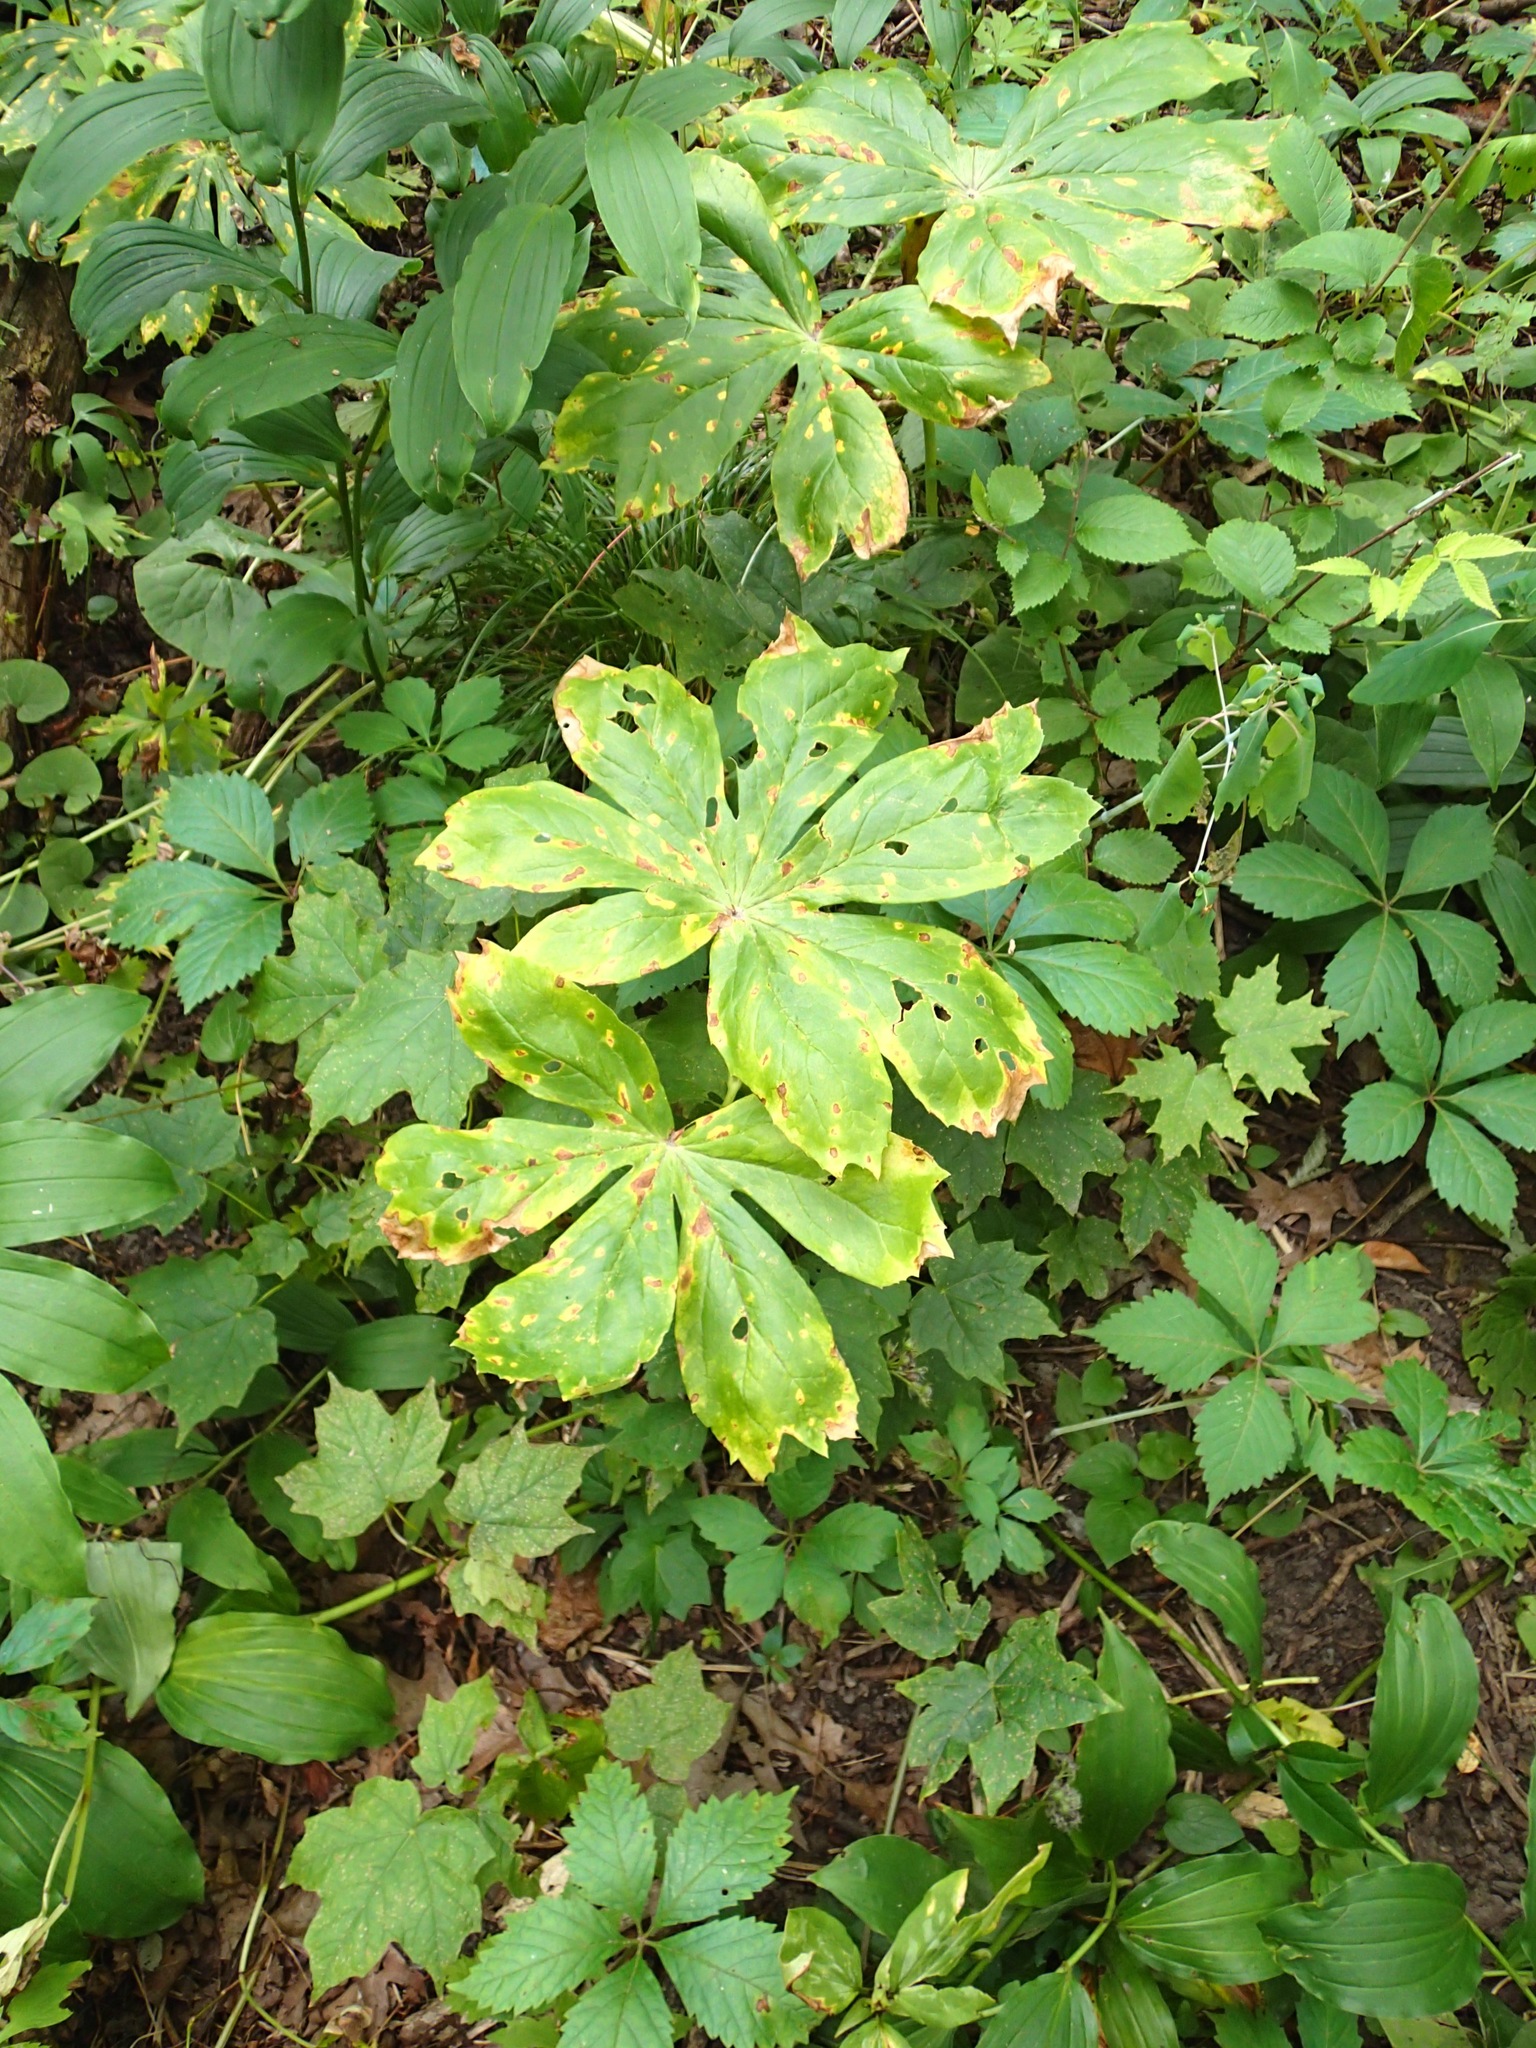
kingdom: Plantae
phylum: Tracheophyta
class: Magnoliopsida
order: Ranunculales
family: Berberidaceae
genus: Podophyllum
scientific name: Podophyllum peltatum
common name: Wild mandrake
